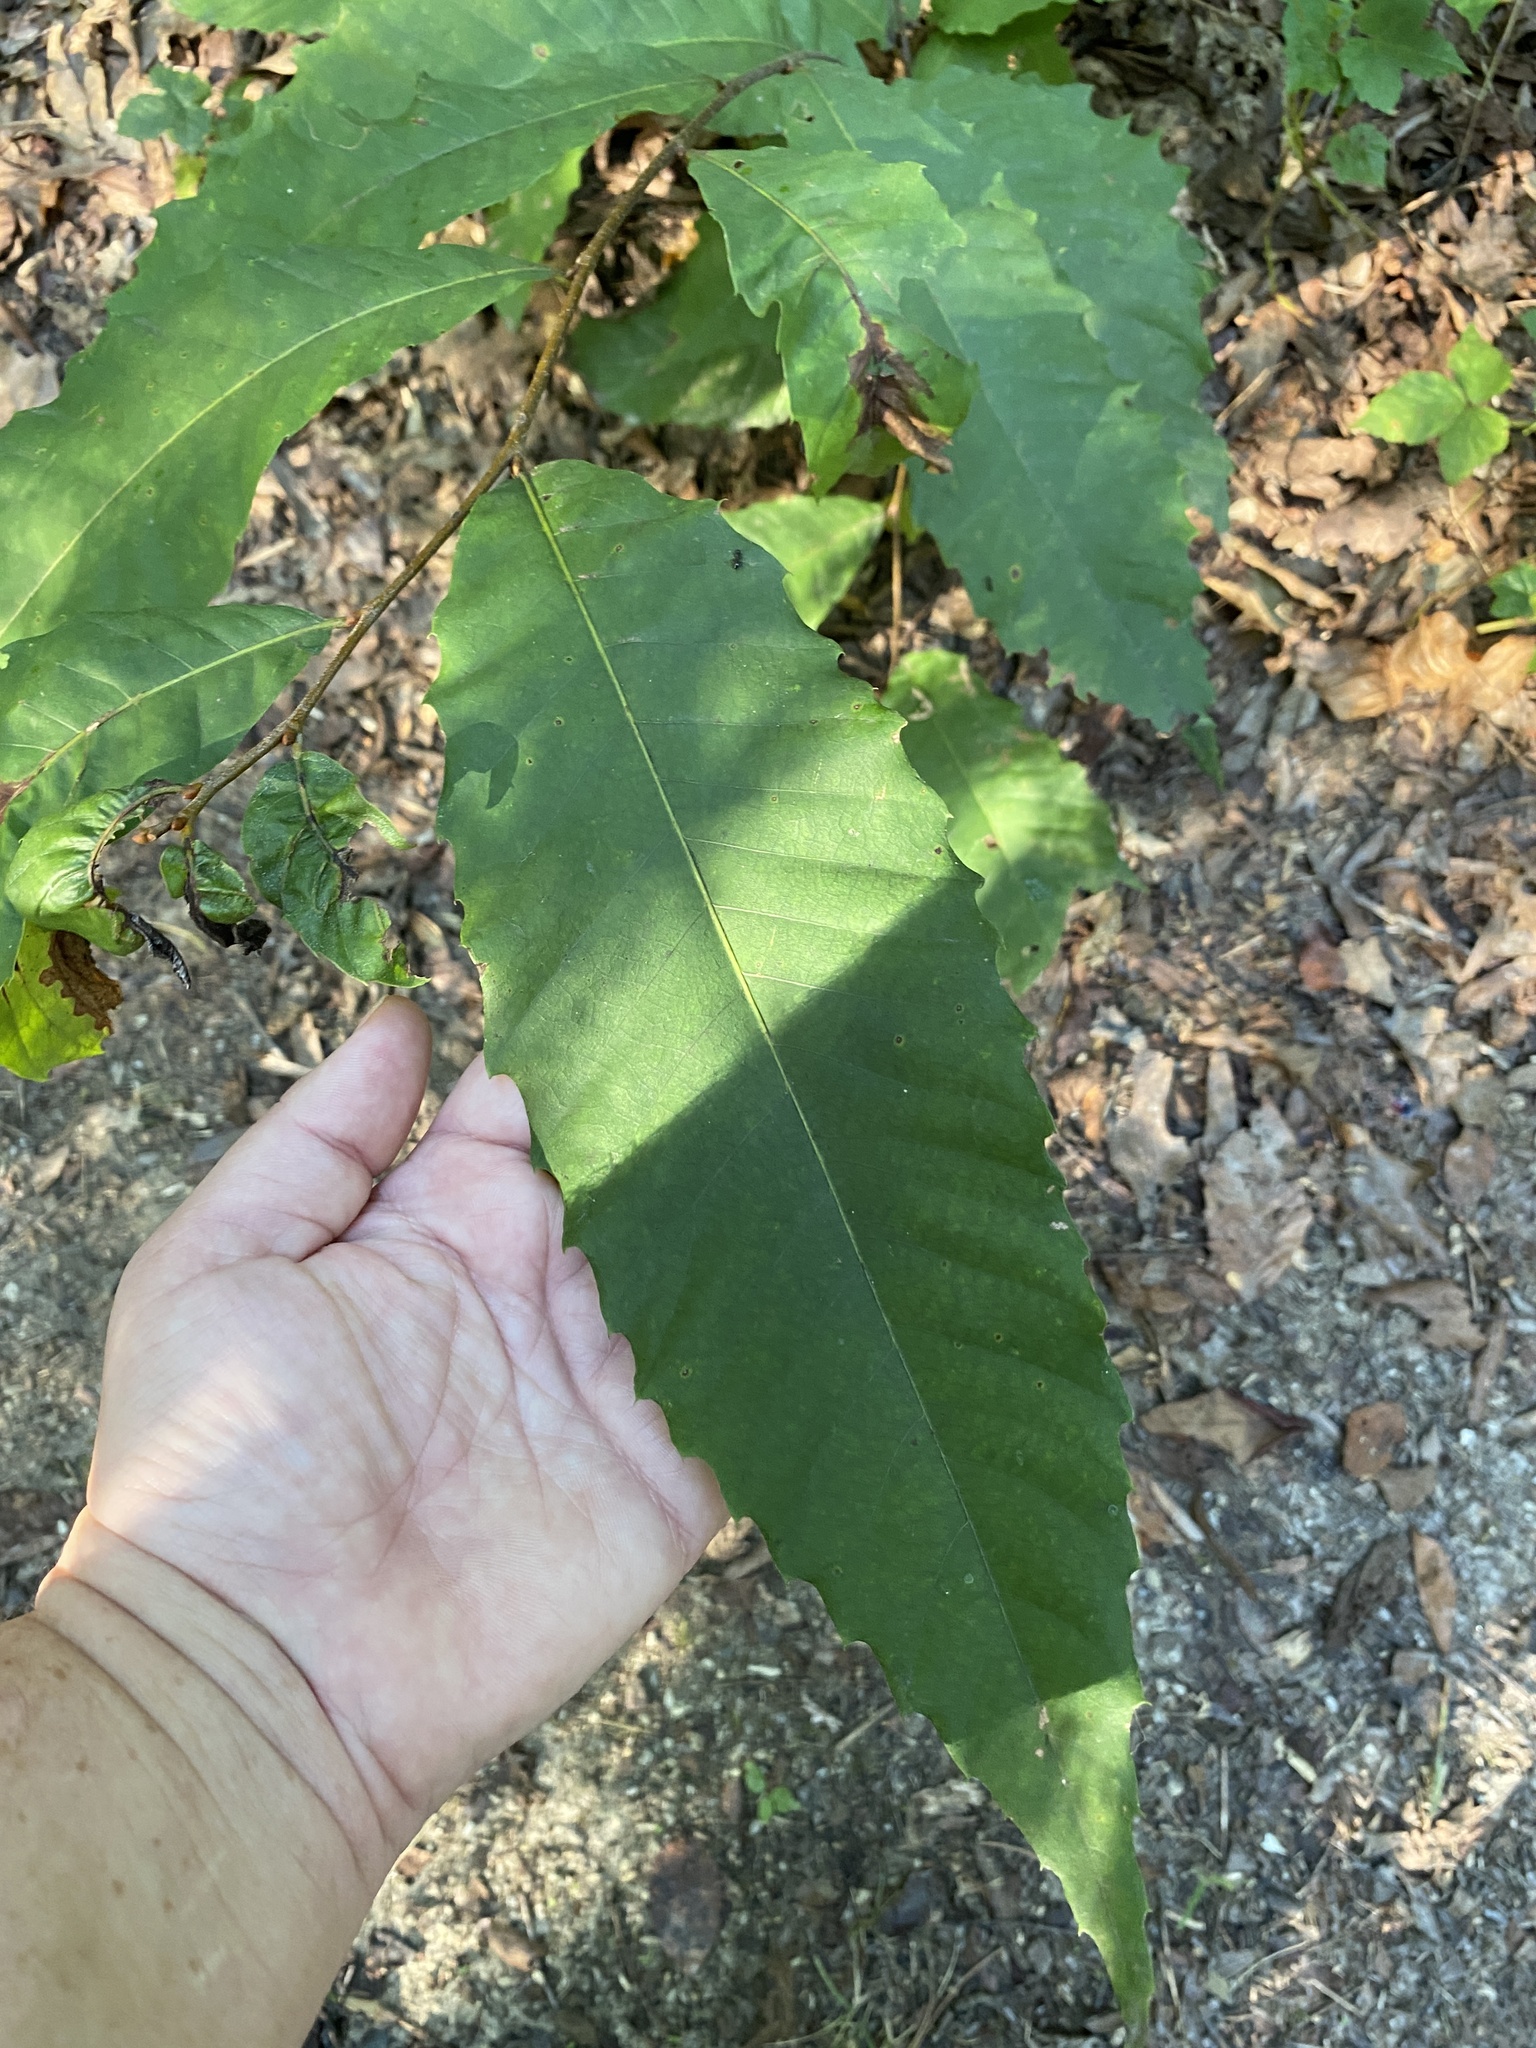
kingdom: Plantae
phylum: Tracheophyta
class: Magnoliopsida
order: Fagales
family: Fagaceae
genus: Castanea
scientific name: Castanea dentata
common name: American chestnut
